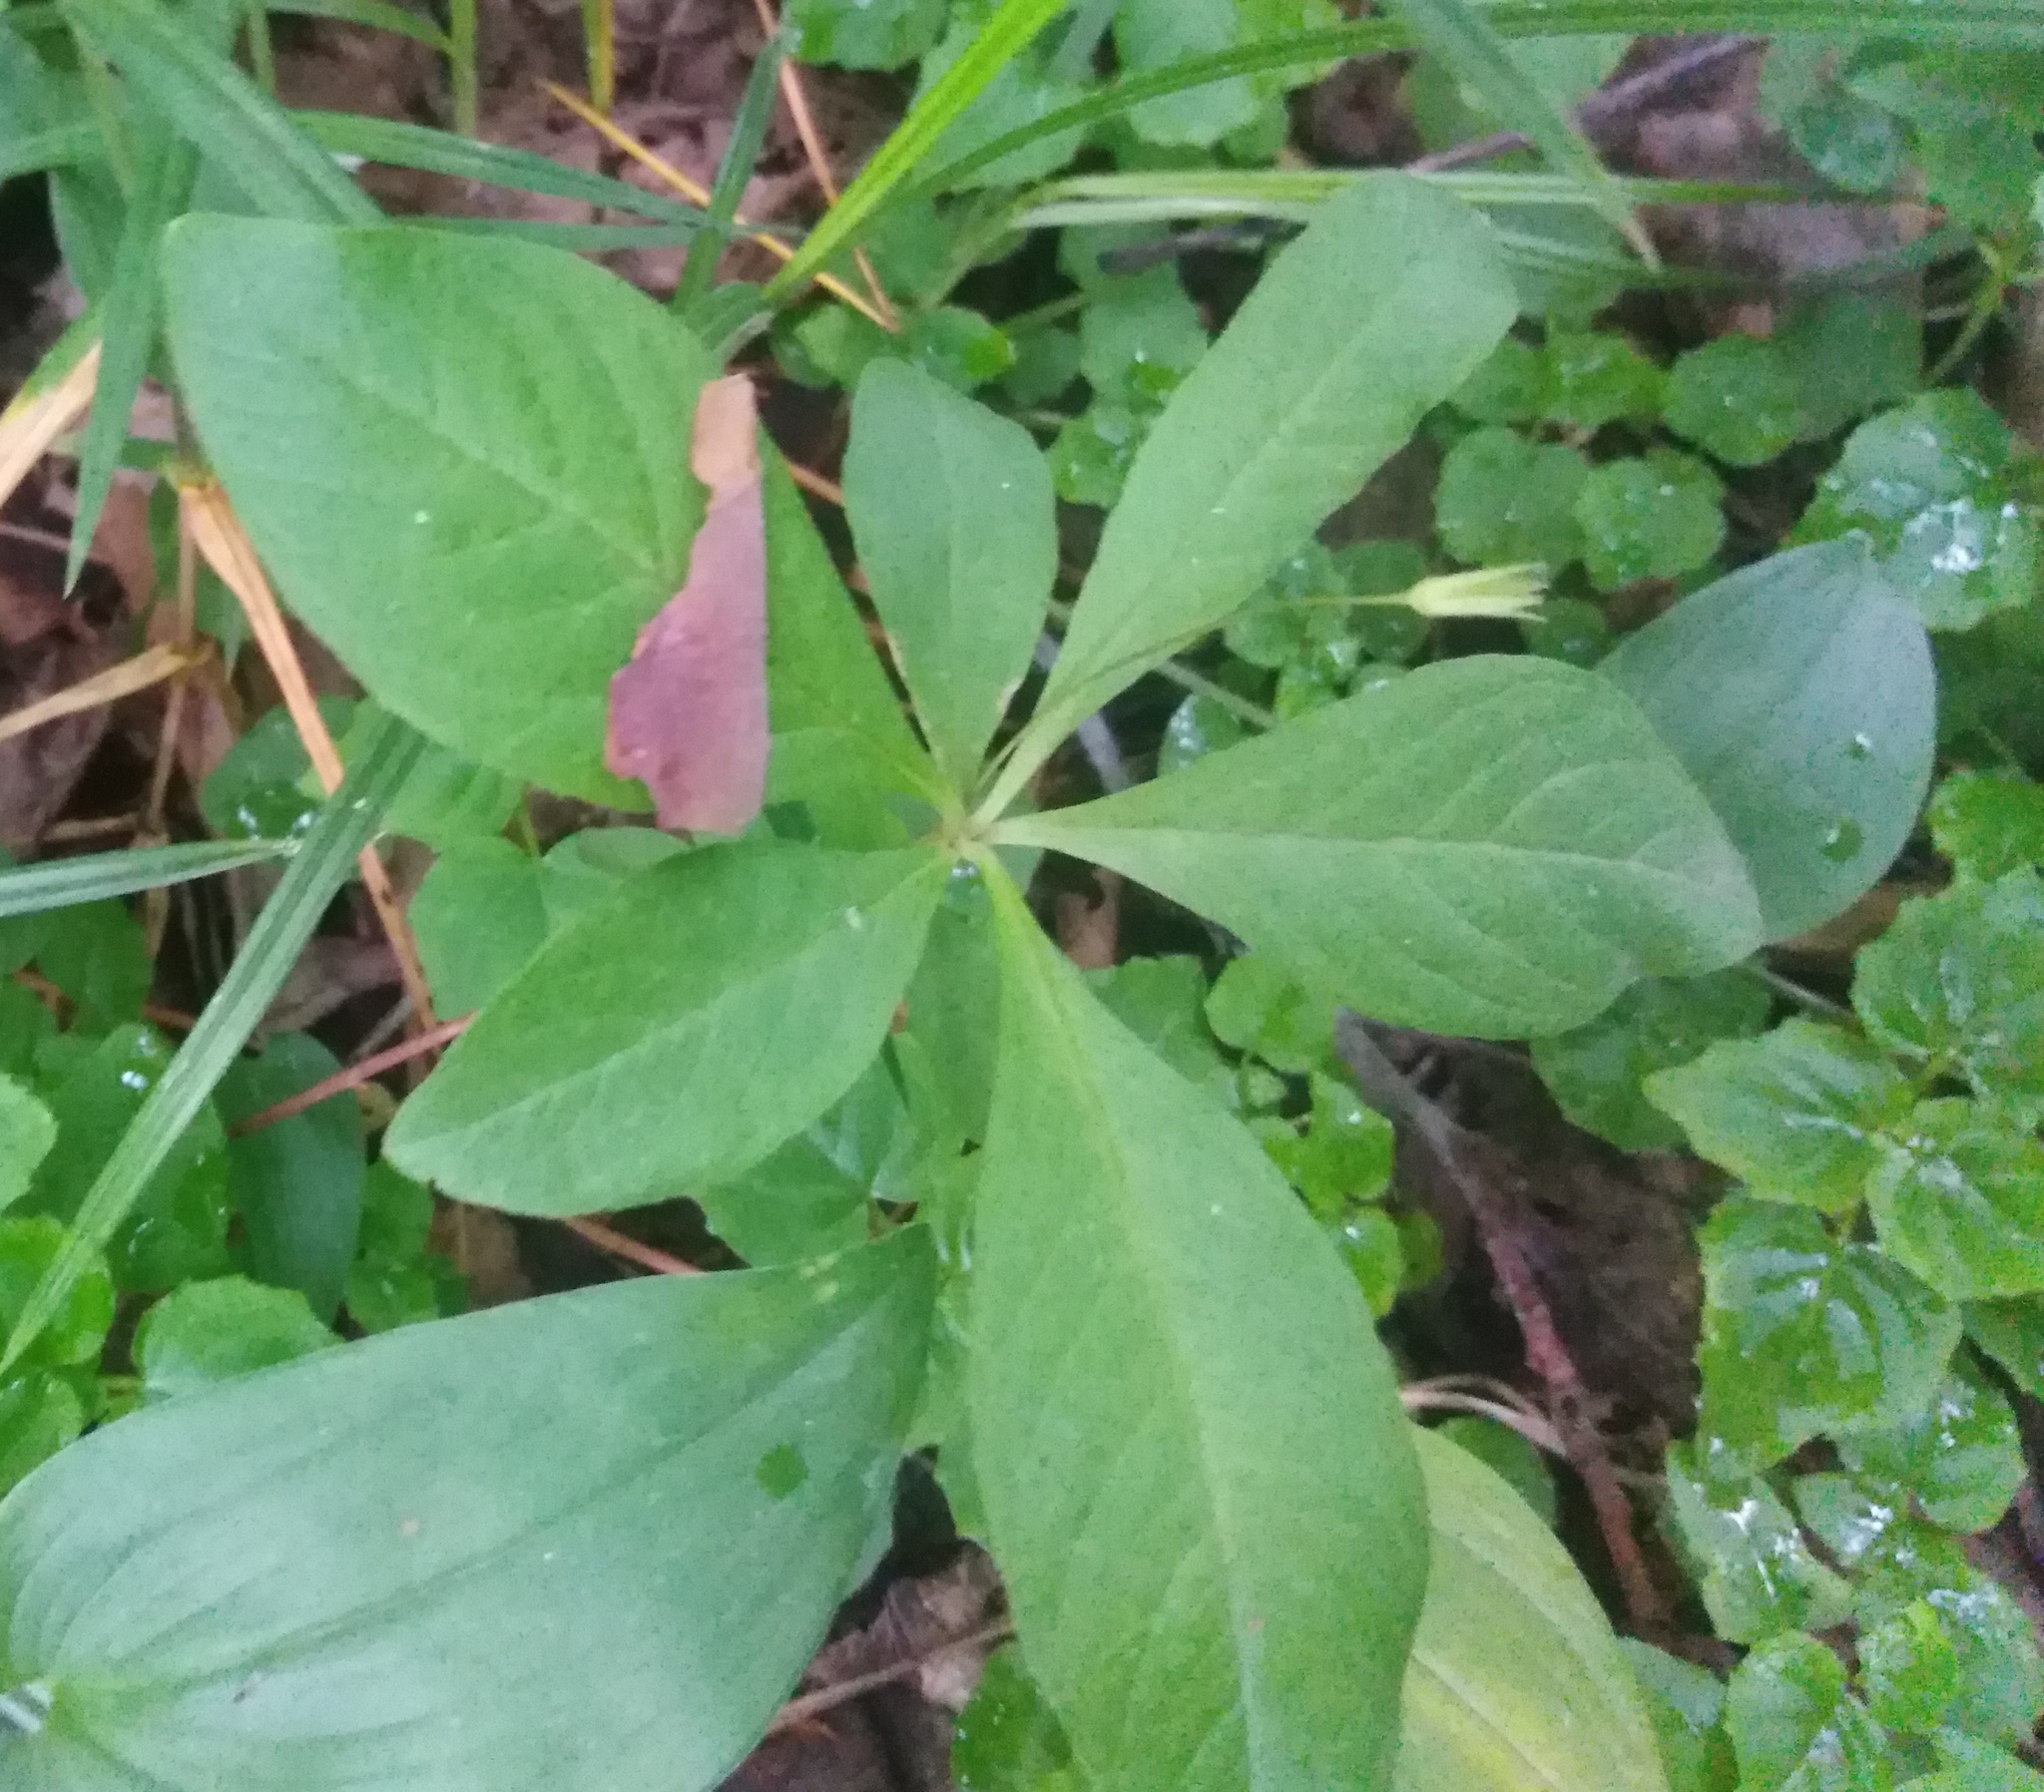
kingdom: Plantae
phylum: Tracheophyta
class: Magnoliopsida
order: Ericales
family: Primulaceae
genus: Lysimachia
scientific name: Lysimachia europaea
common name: Arctic starflower
